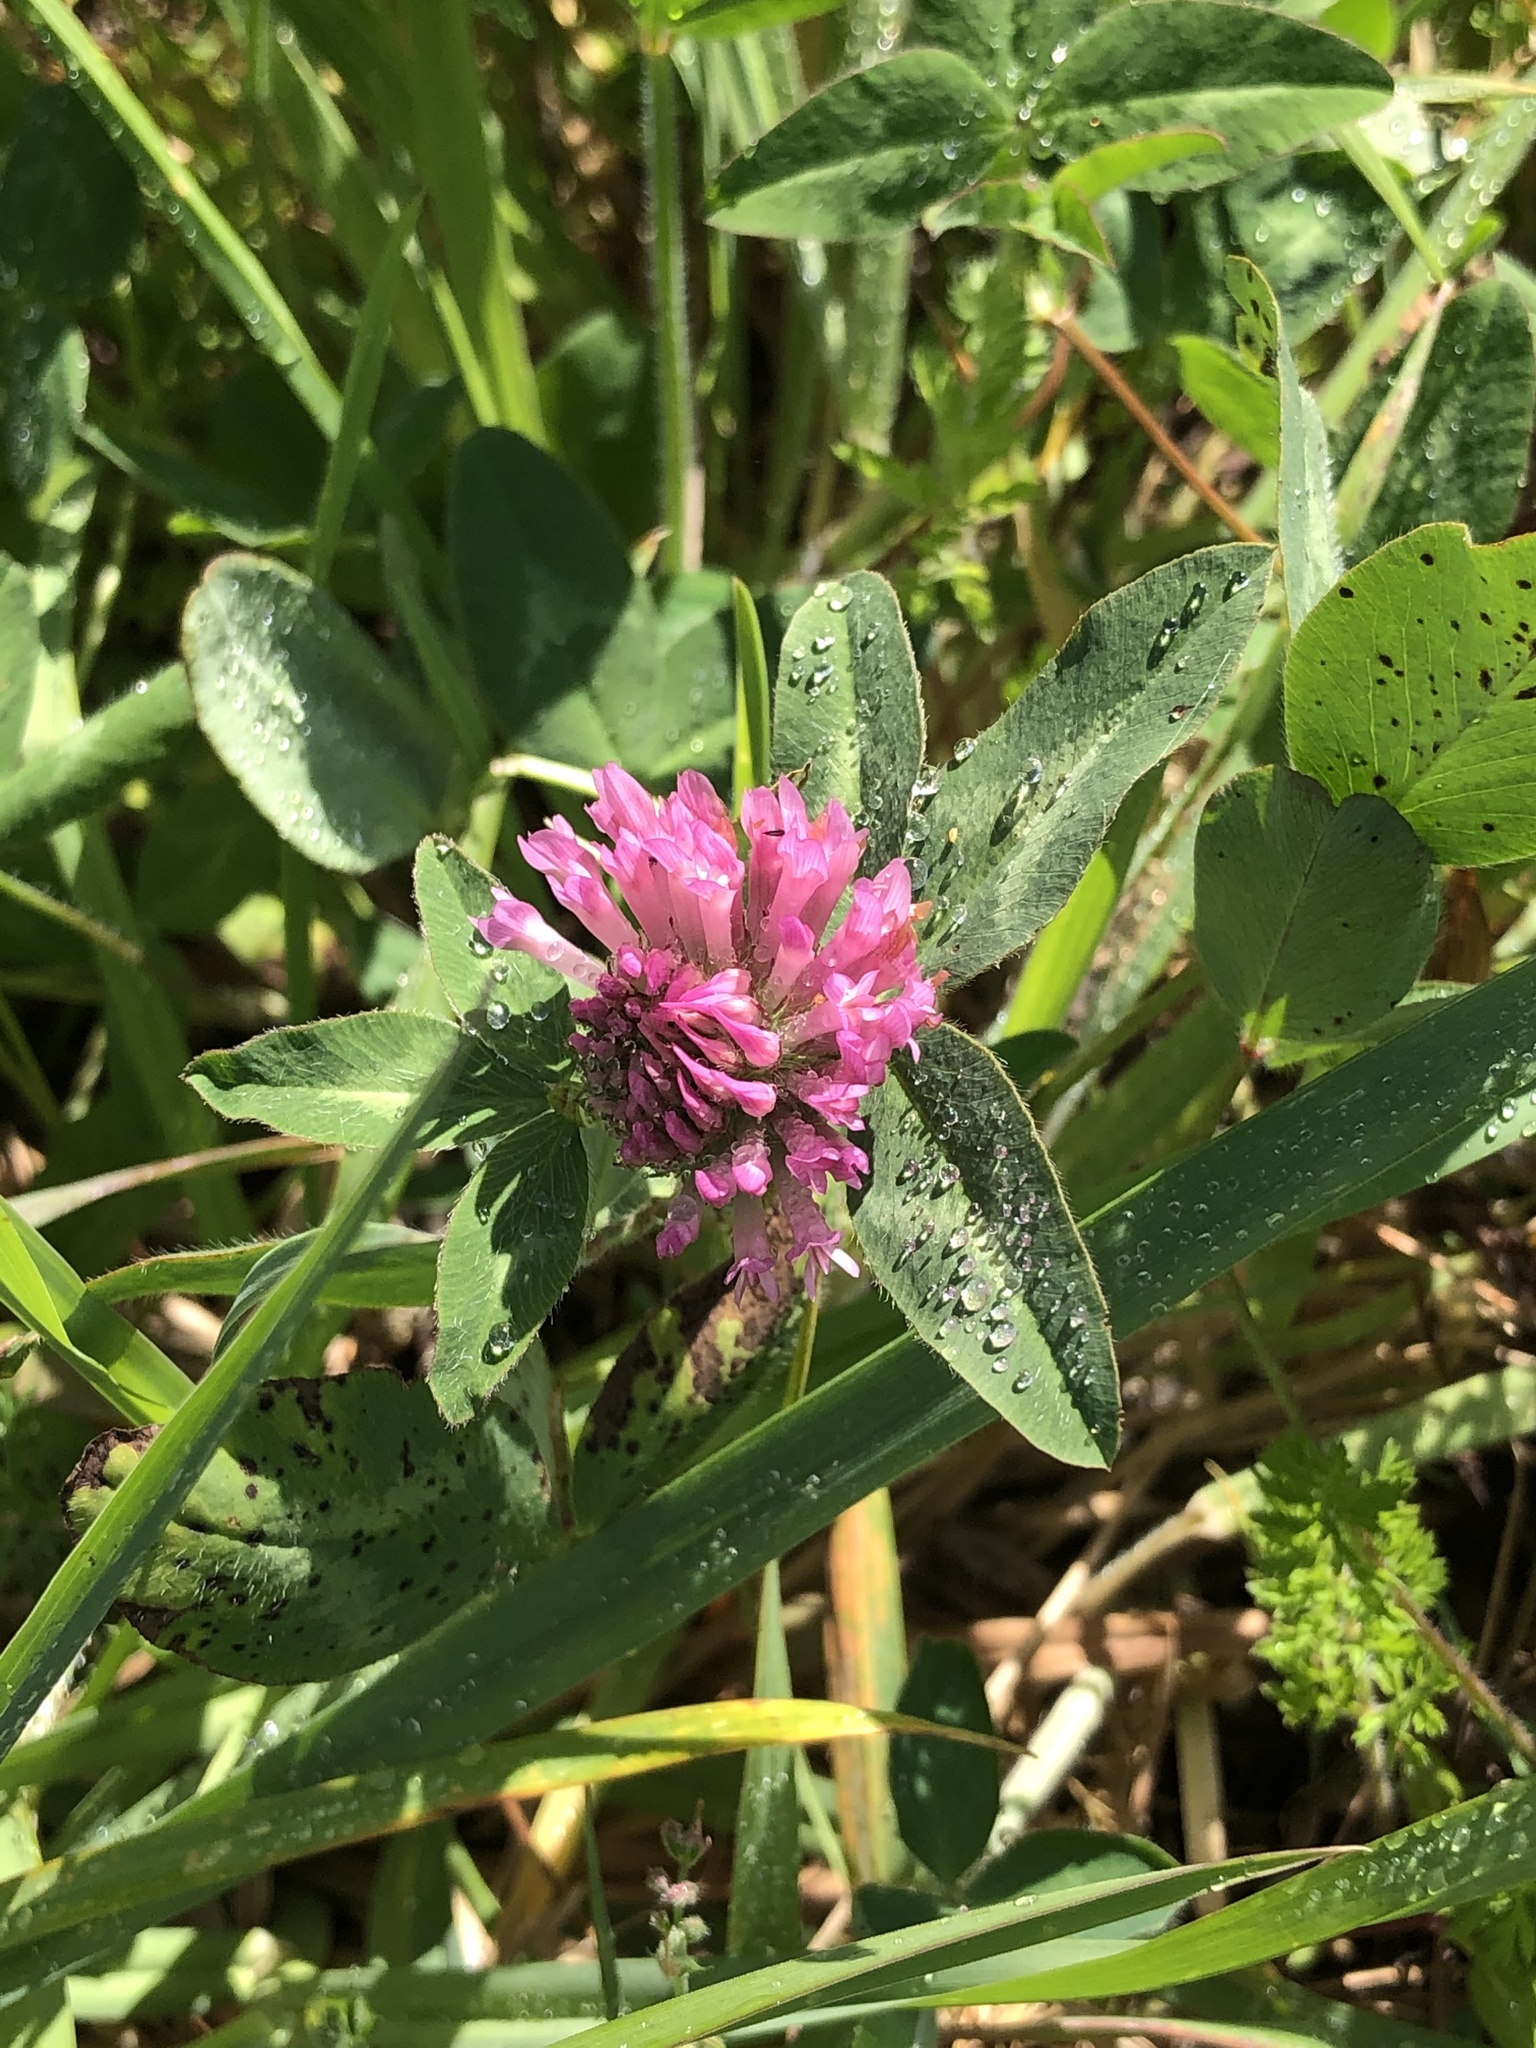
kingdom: Plantae
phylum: Tracheophyta
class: Magnoliopsida
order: Fabales
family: Fabaceae
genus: Trifolium
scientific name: Trifolium pratense
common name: Red clover
